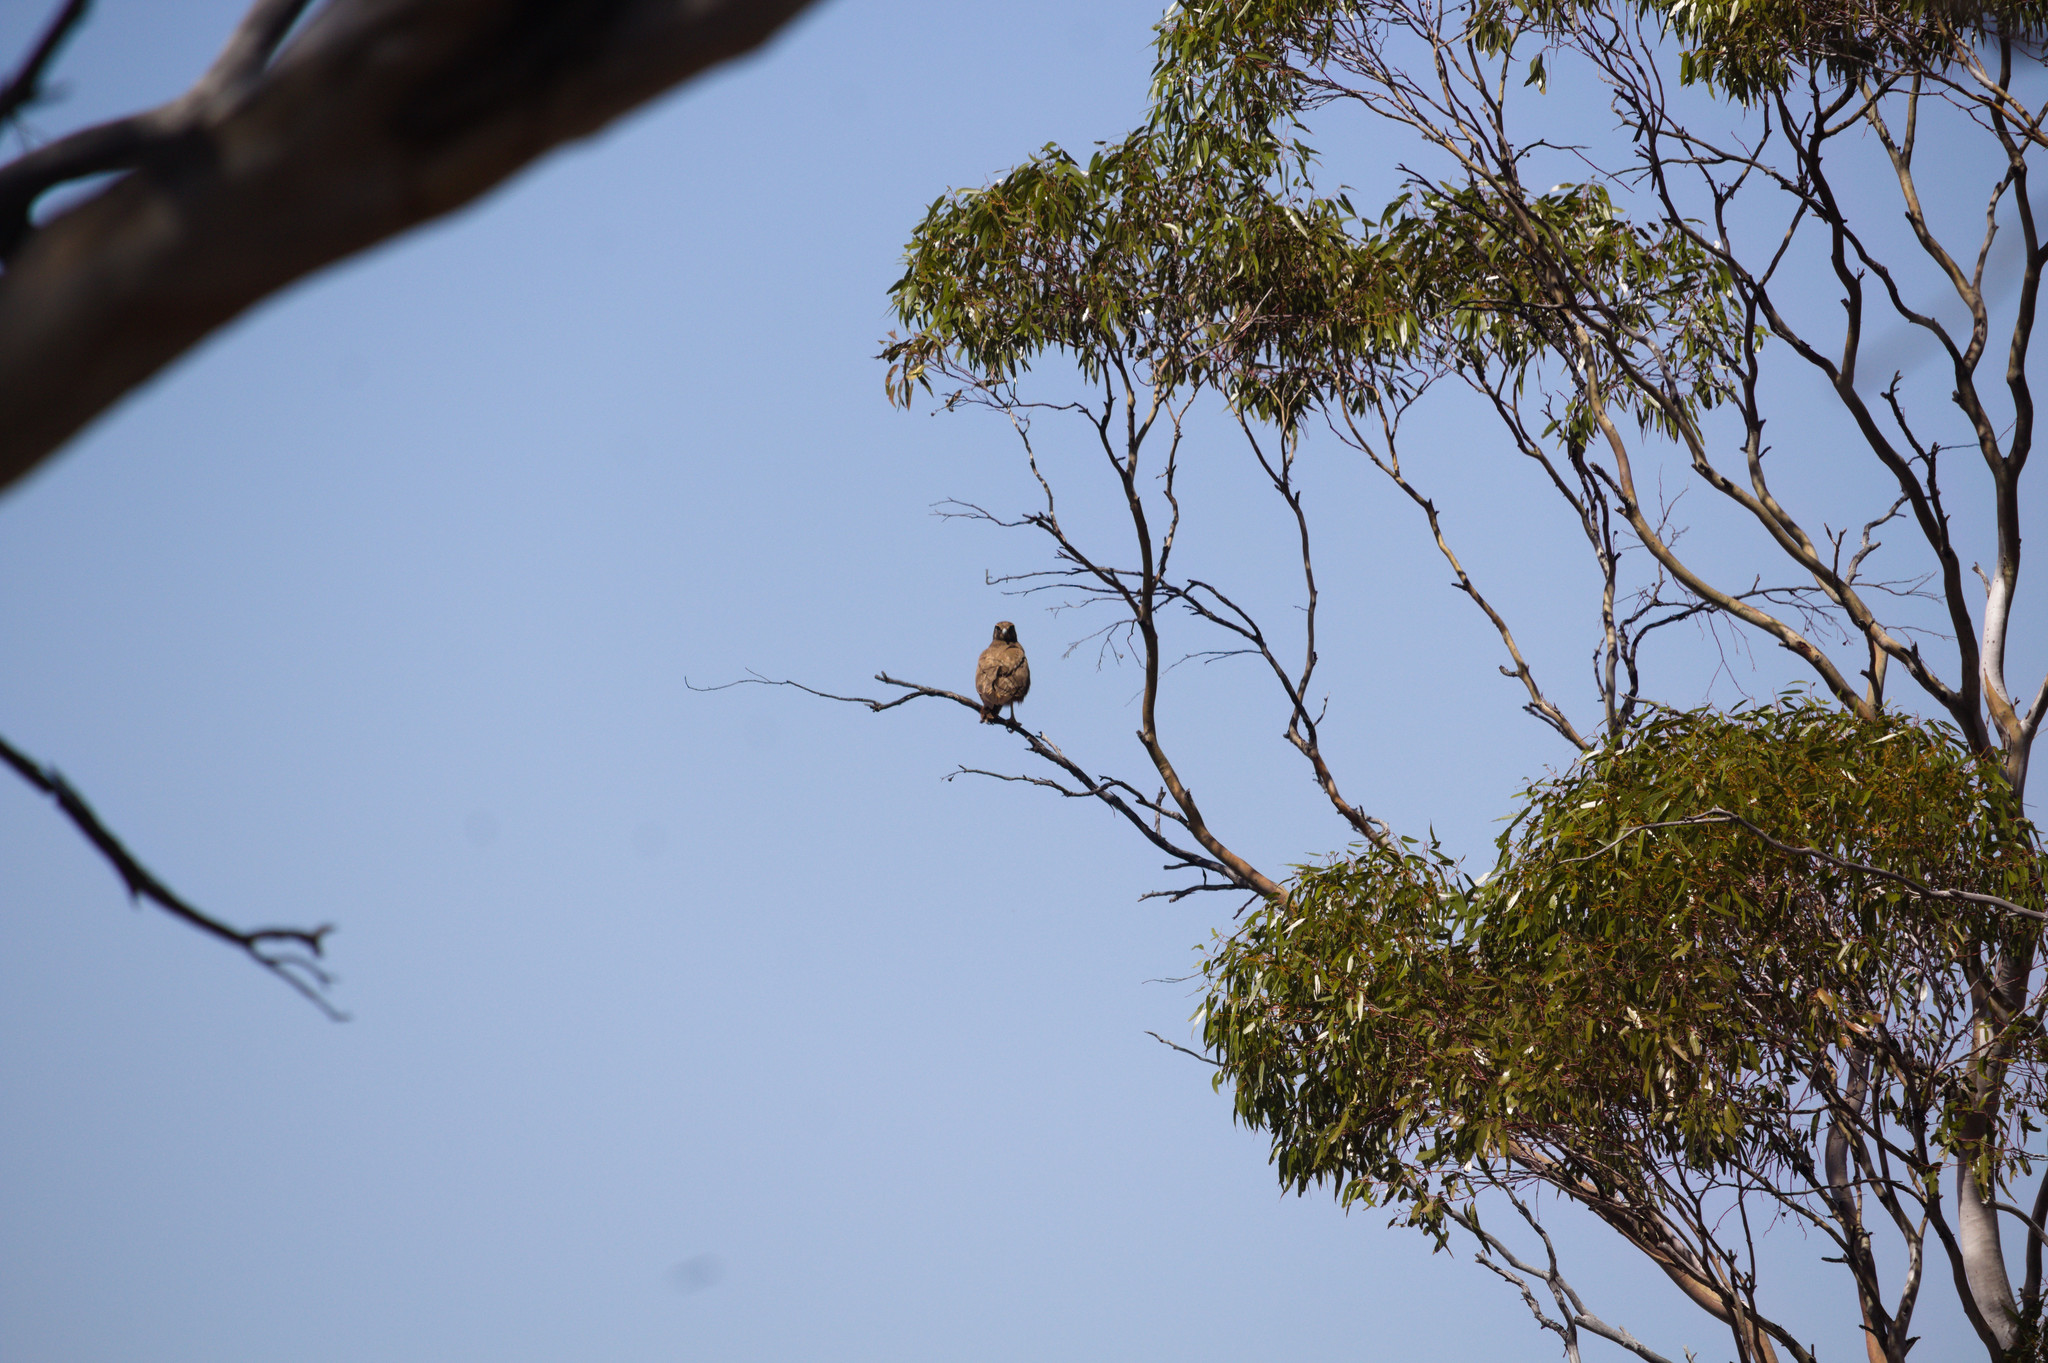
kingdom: Animalia
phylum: Chordata
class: Aves
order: Falconiformes
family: Falconidae
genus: Falco
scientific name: Falco berigora
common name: Brown falcon
